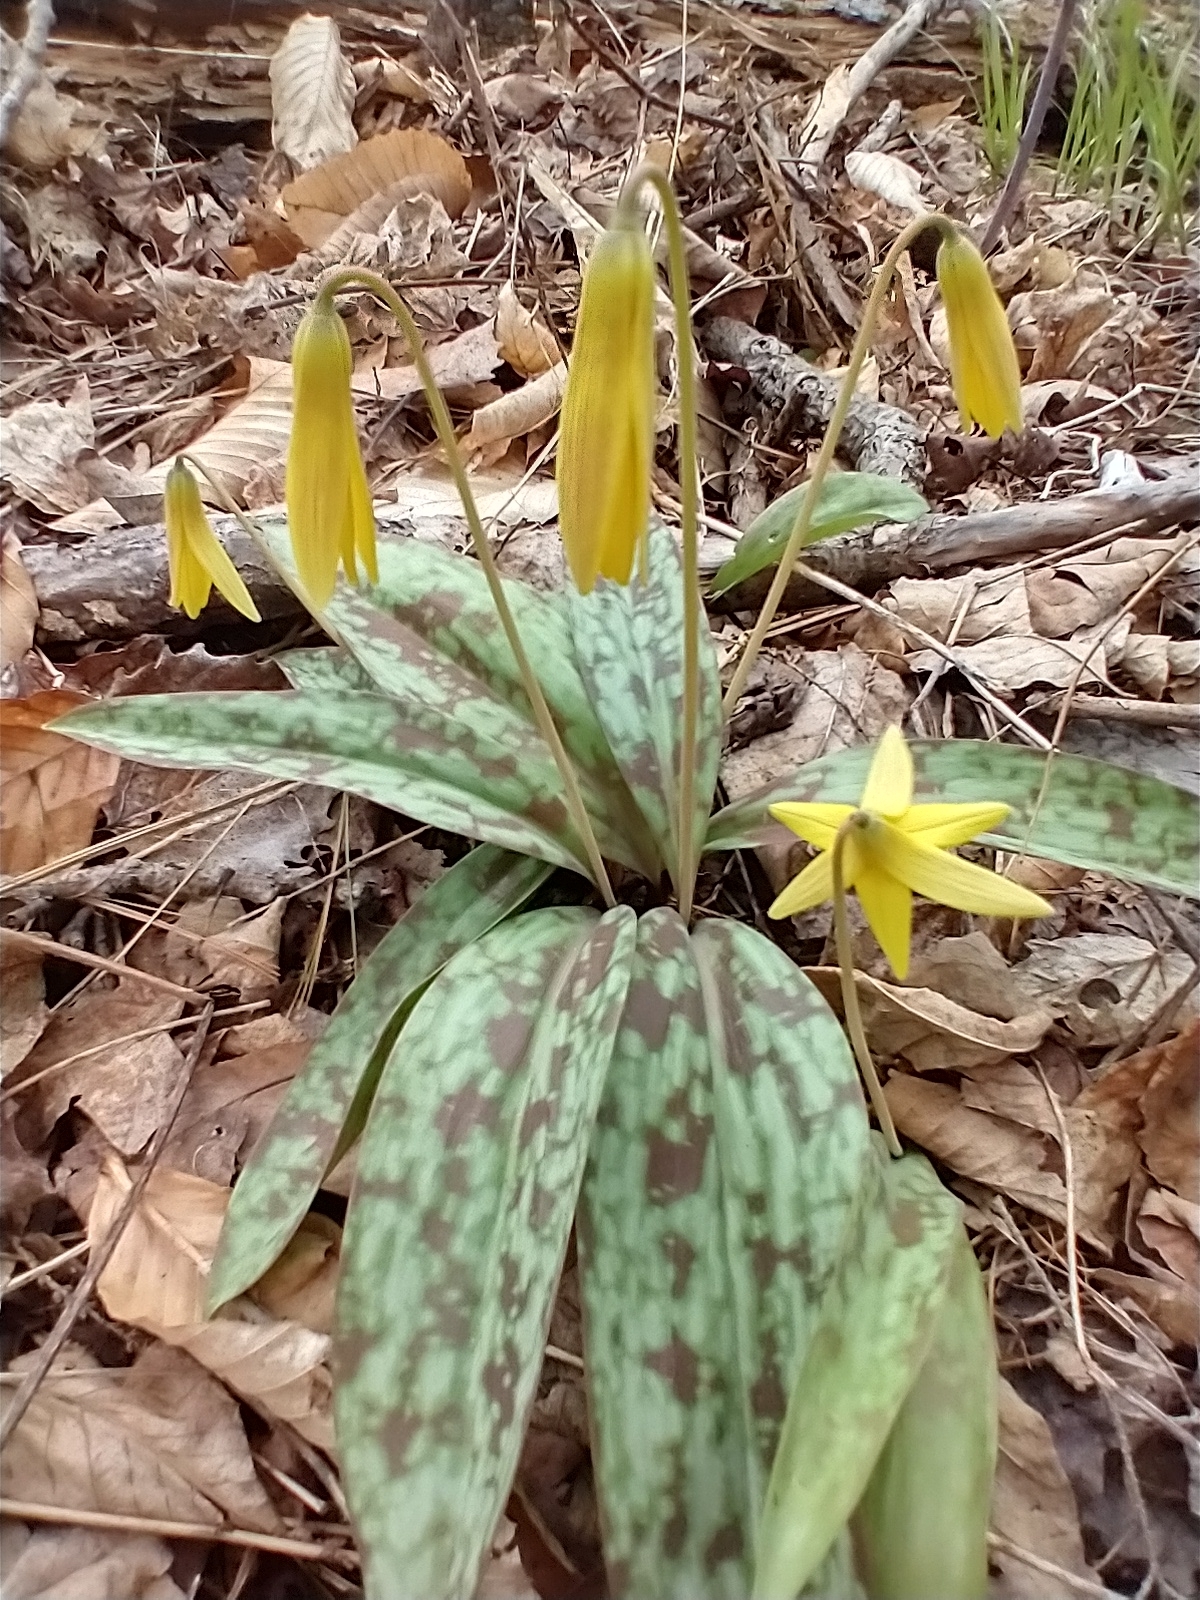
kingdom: Plantae
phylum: Tracheophyta
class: Liliopsida
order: Liliales
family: Liliaceae
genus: Erythronium
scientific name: Erythronium americanum
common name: Yellow adder's-tongue
